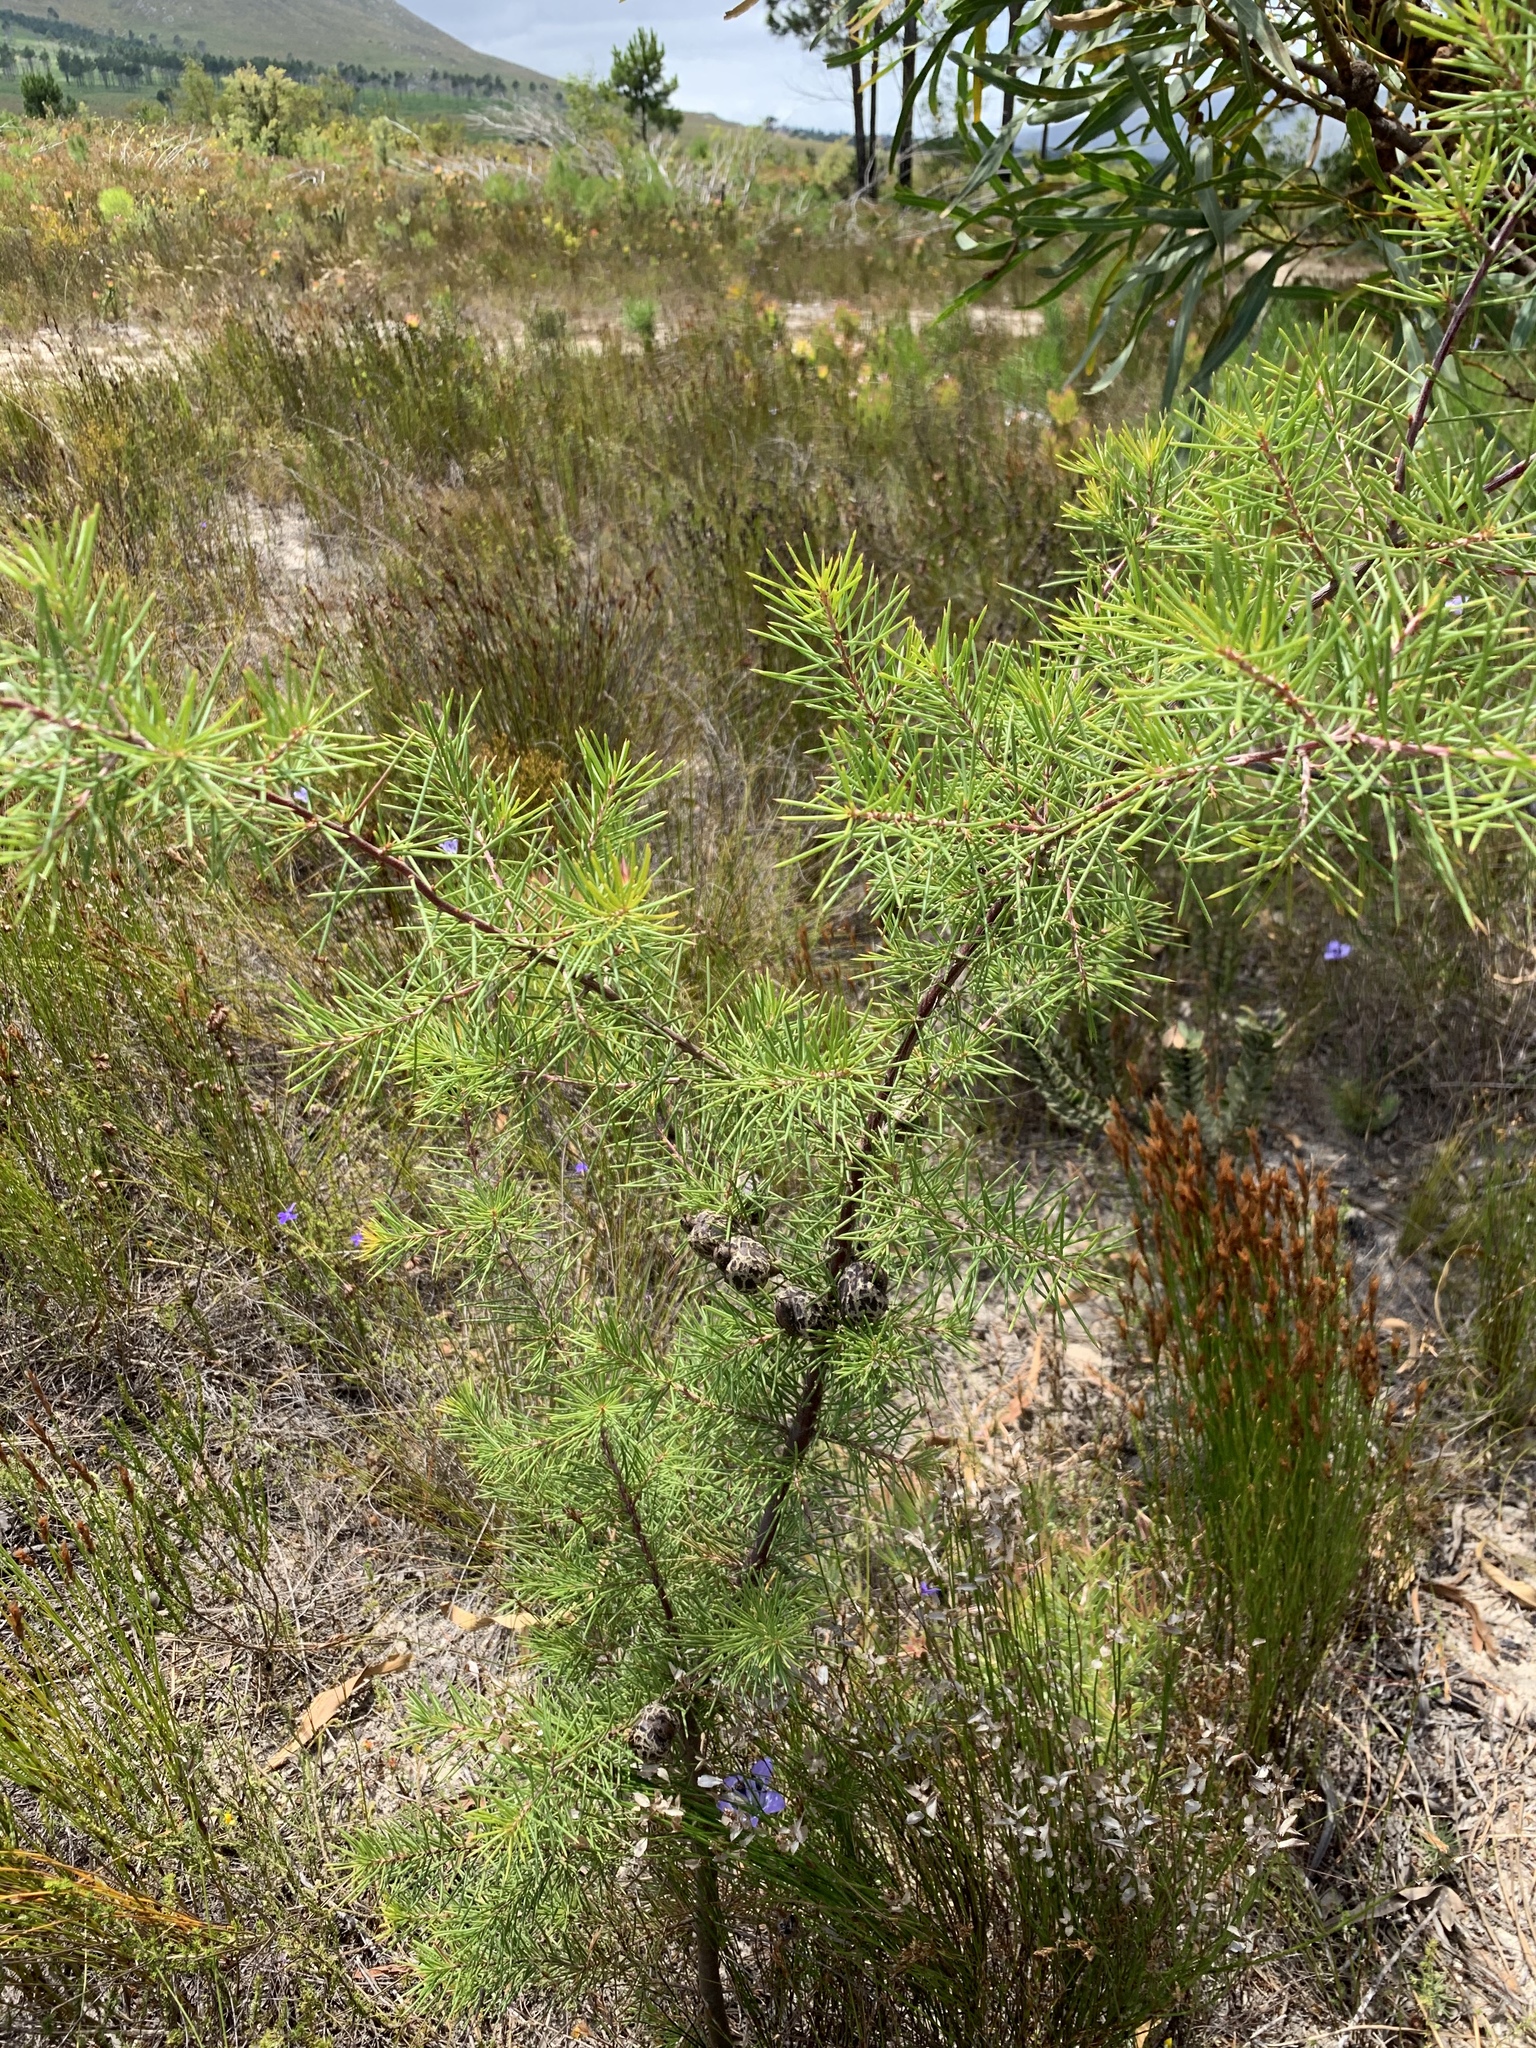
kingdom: Plantae
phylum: Tracheophyta
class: Magnoliopsida
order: Proteales
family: Proteaceae
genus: Hakea
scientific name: Hakea sericea
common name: Needle bush
